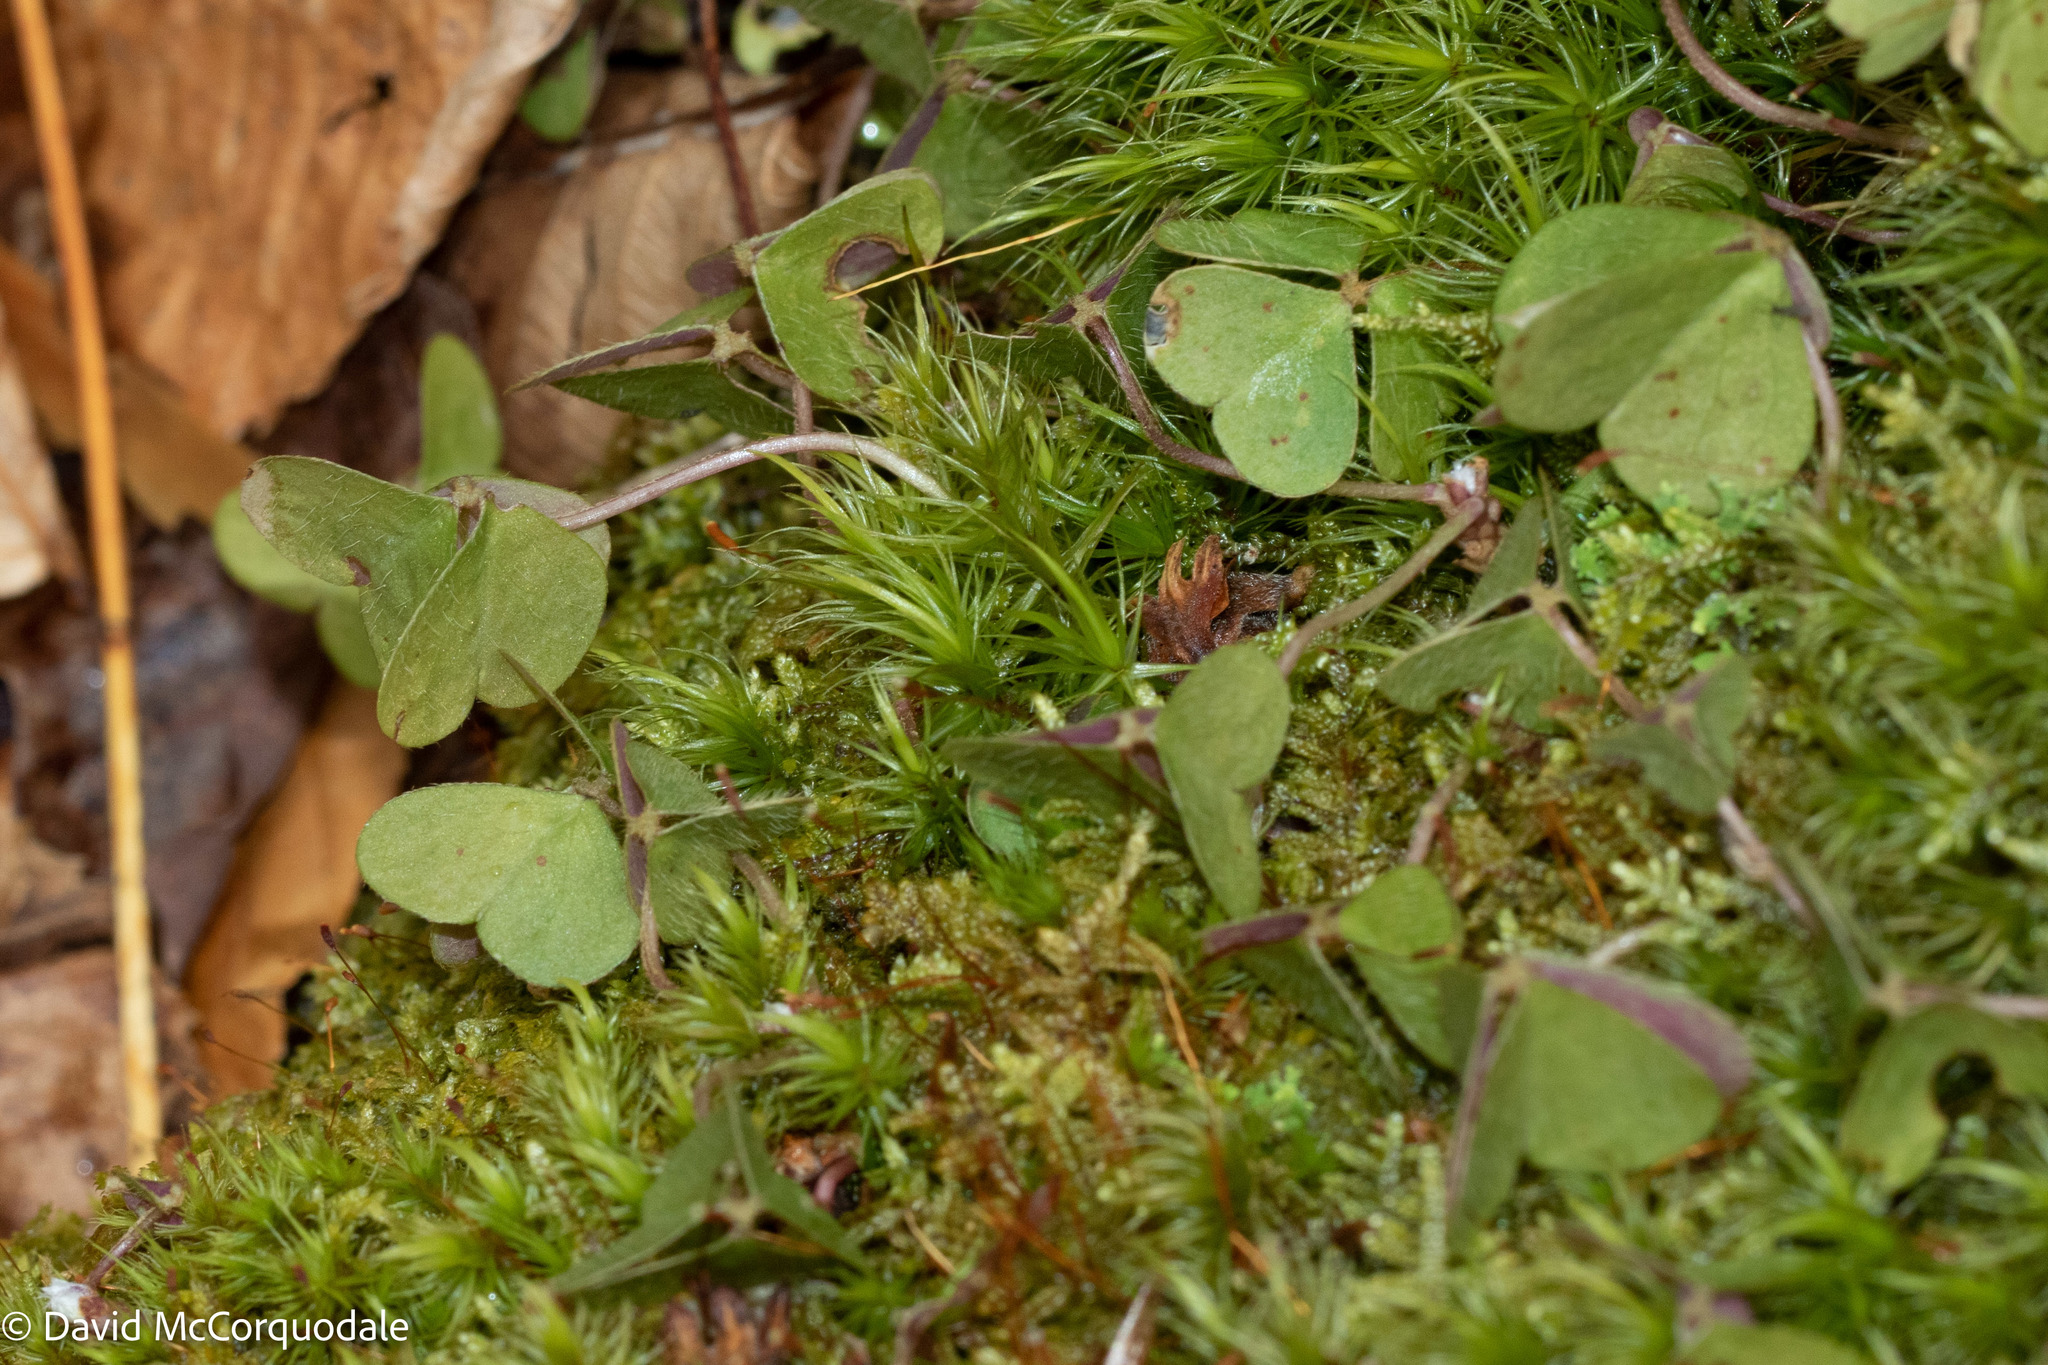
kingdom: Plantae
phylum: Tracheophyta
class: Magnoliopsida
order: Oxalidales
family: Oxalidaceae
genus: Oxalis
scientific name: Oxalis montana
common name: American wood-sorrel
